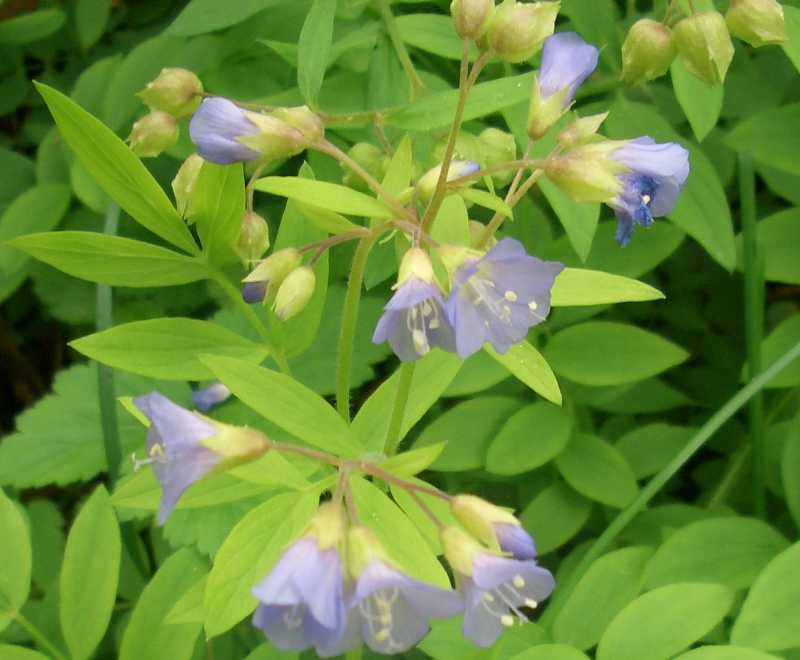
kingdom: Plantae
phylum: Tracheophyta
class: Magnoliopsida
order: Ericales
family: Polemoniaceae
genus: Polemonium
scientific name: Polemonium reptans
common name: Creeping jacob's-ladder
